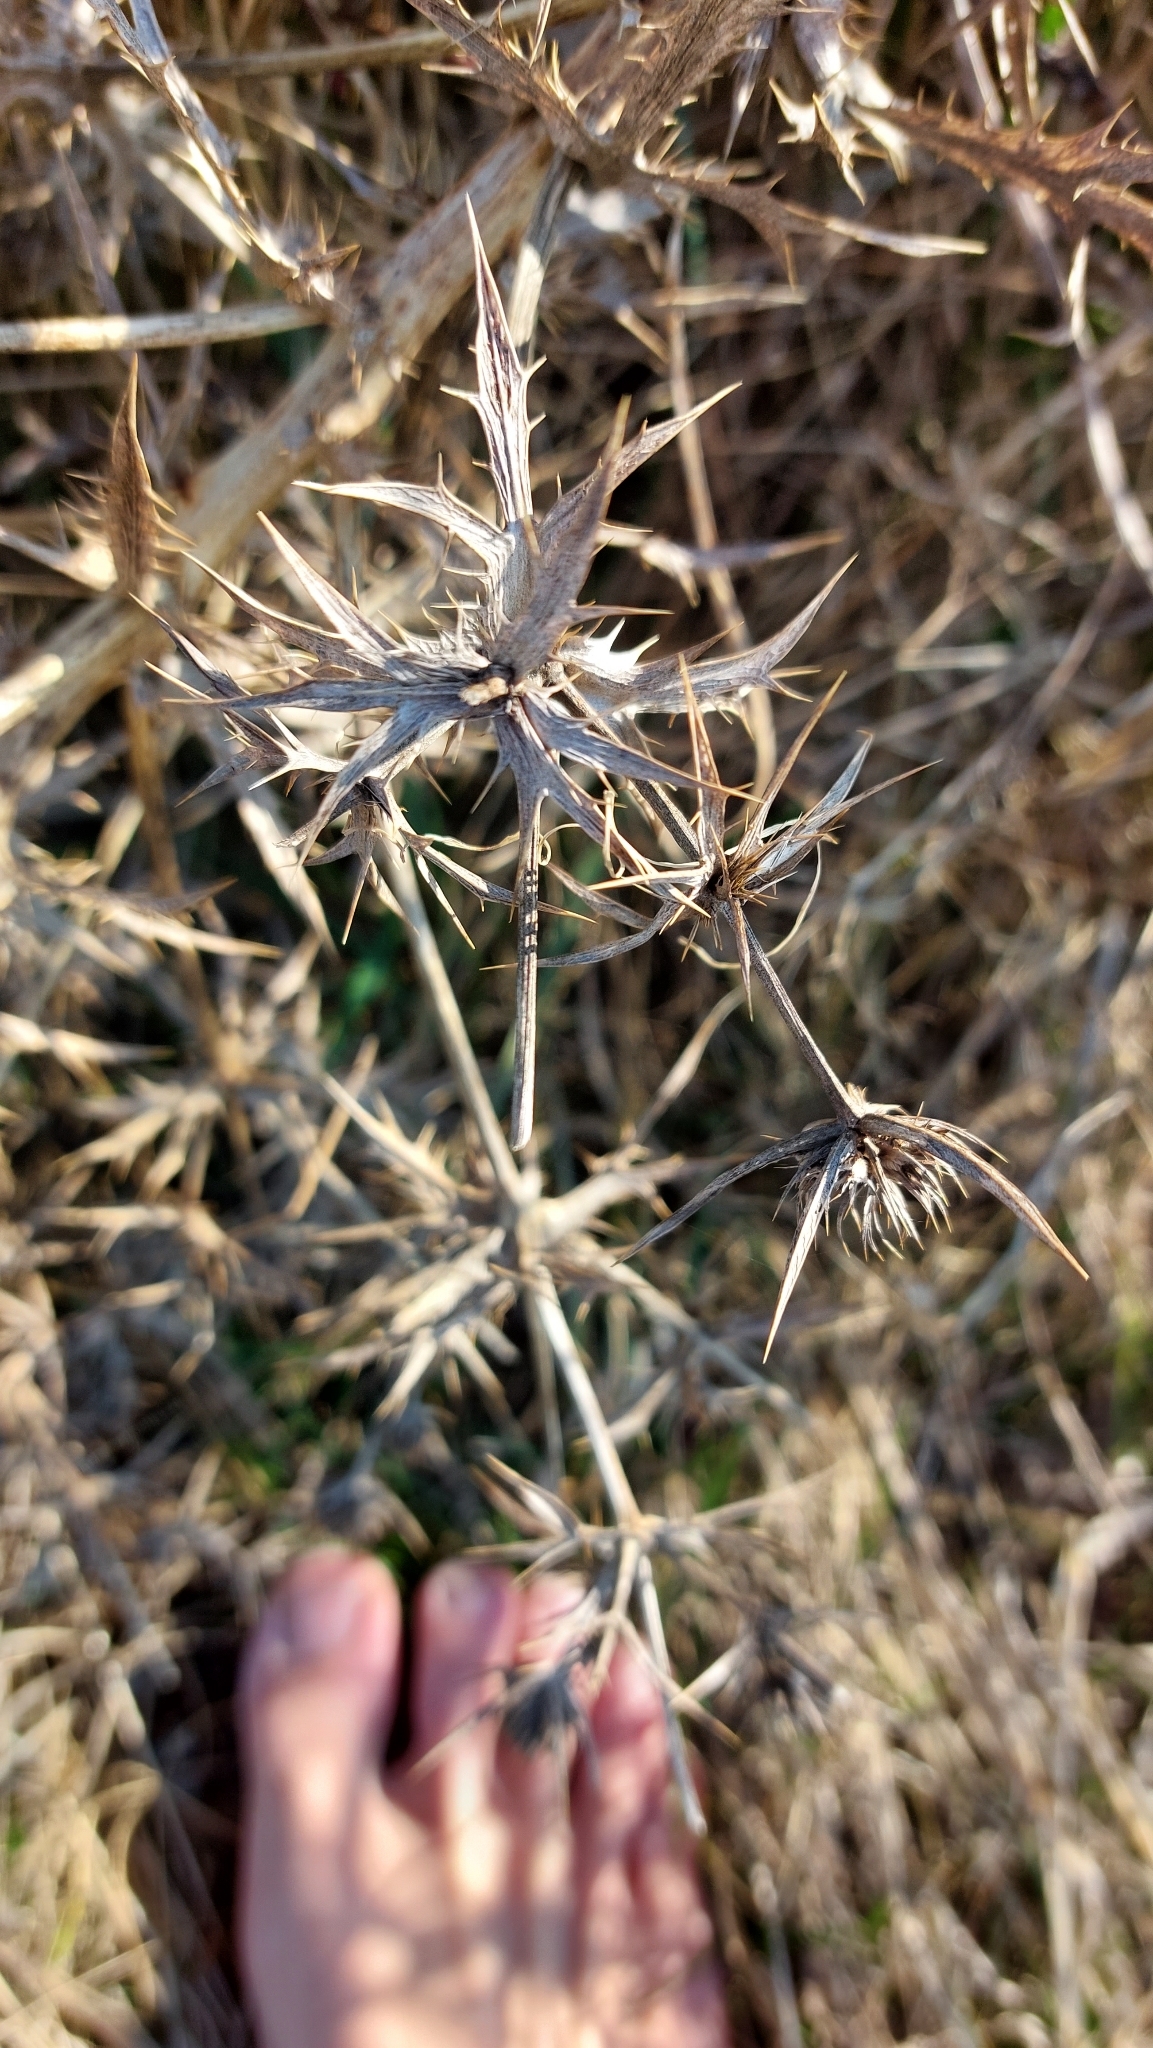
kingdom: Plantae
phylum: Tracheophyta
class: Magnoliopsida
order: Apiales
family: Apiaceae
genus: Eryngium
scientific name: Eryngium campestre
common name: Field eryngo
